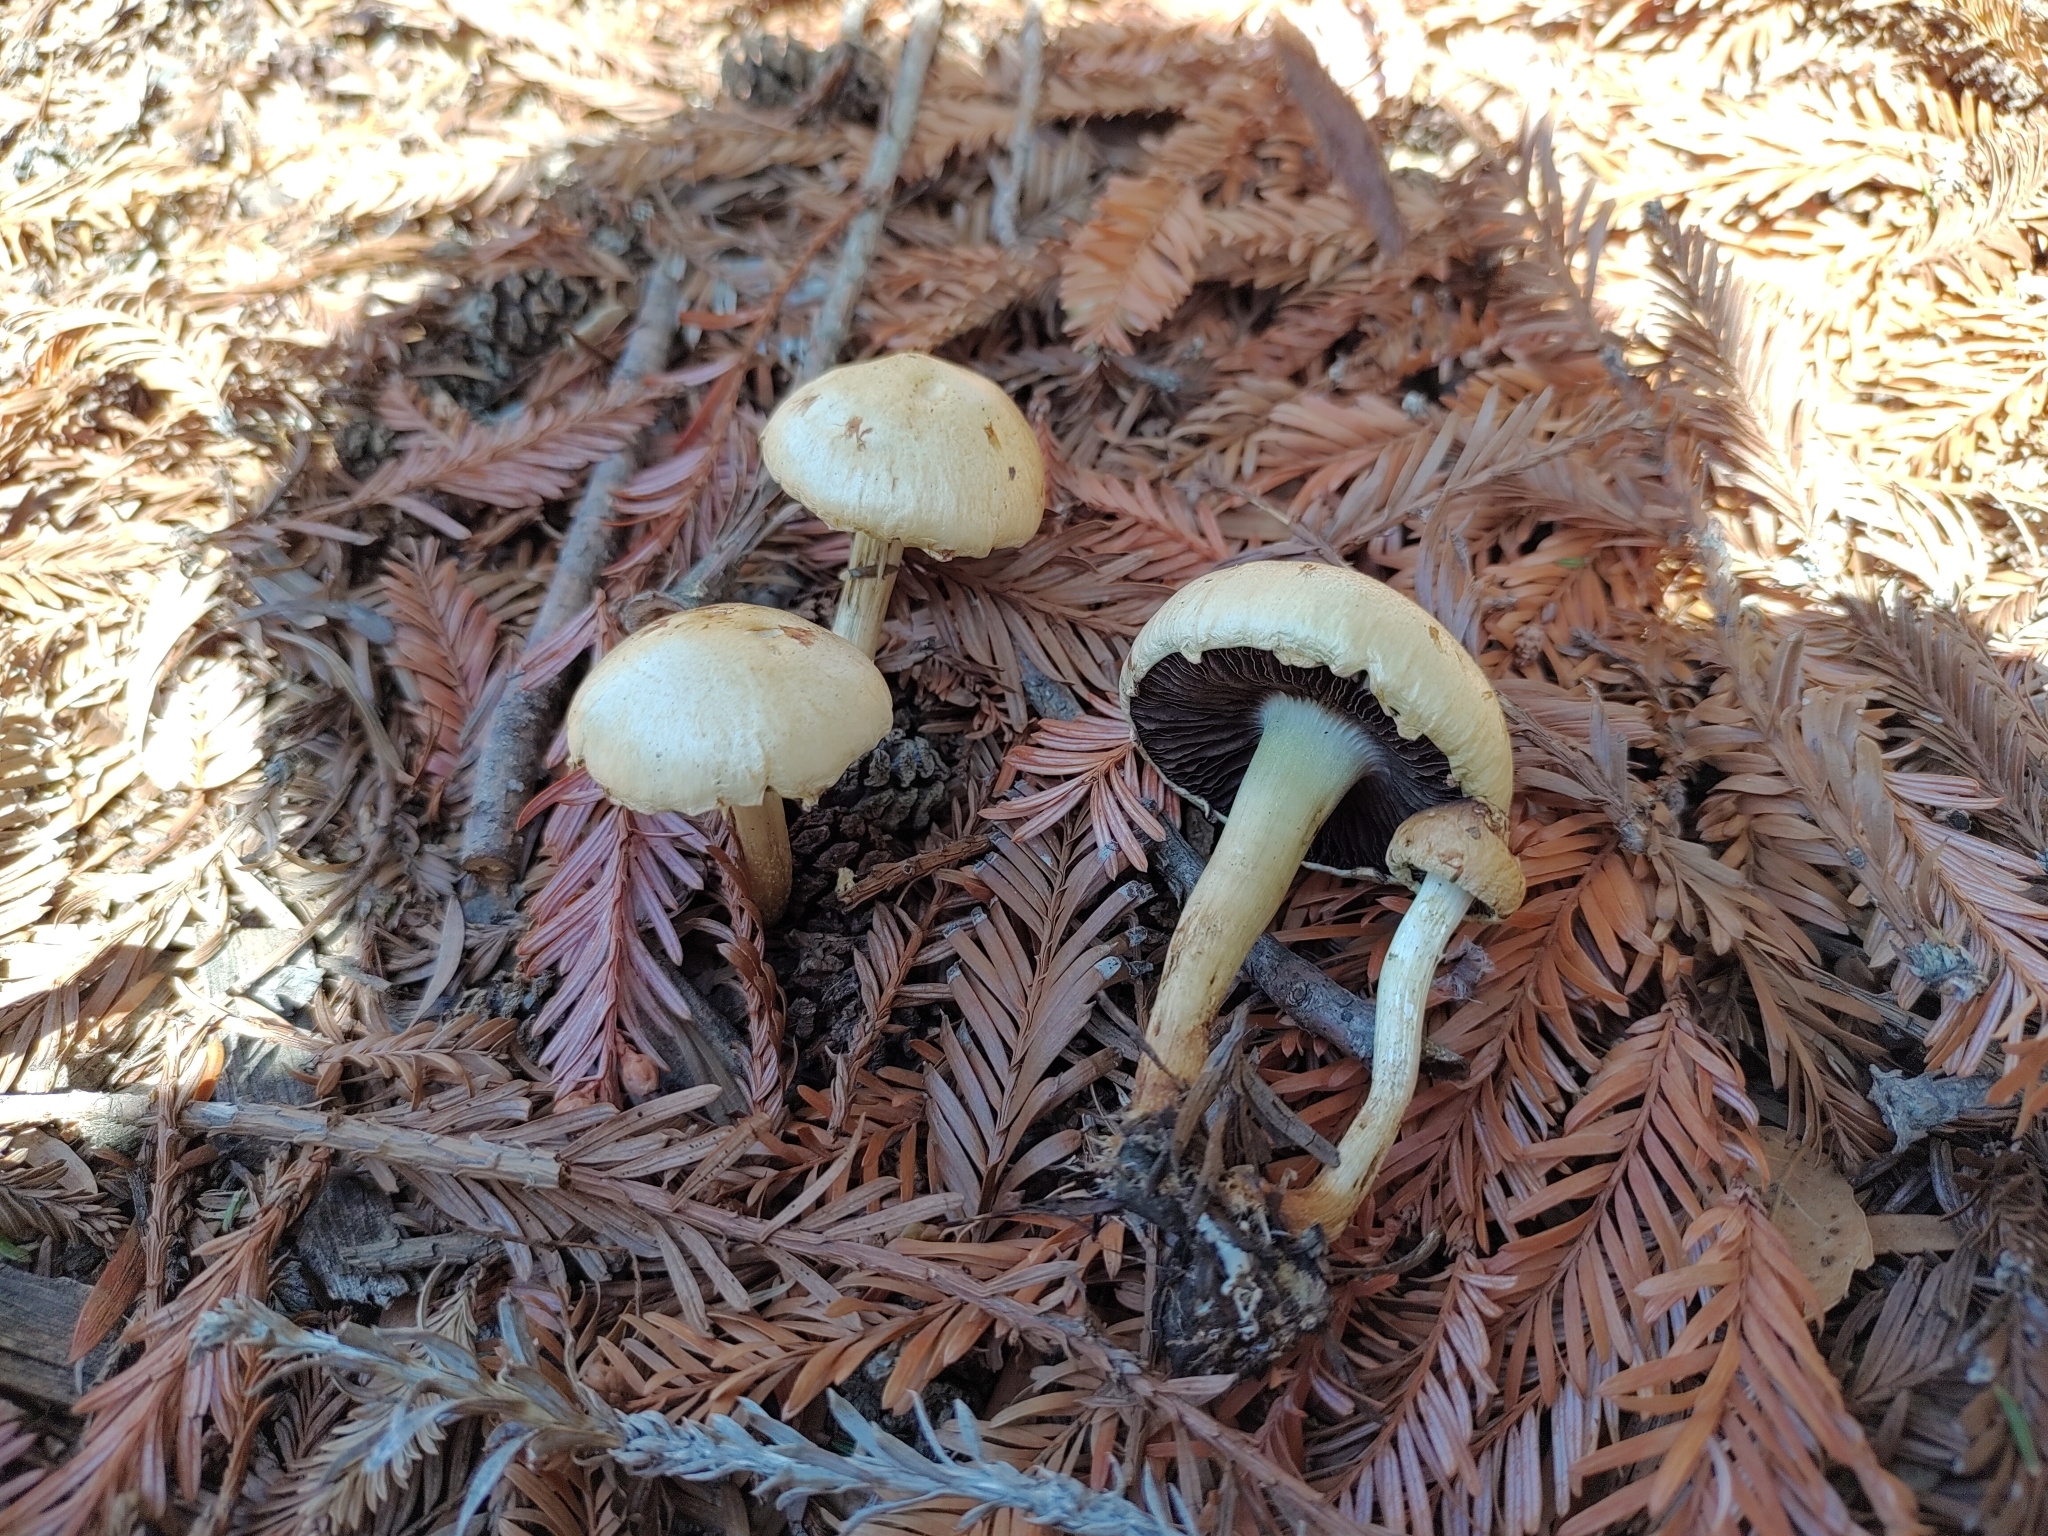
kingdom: Fungi
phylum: Basidiomycota
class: Agaricomycetes
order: Agaricales
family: Strophariaceae
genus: Leratiomyces
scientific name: Leratiomyces percevalii
